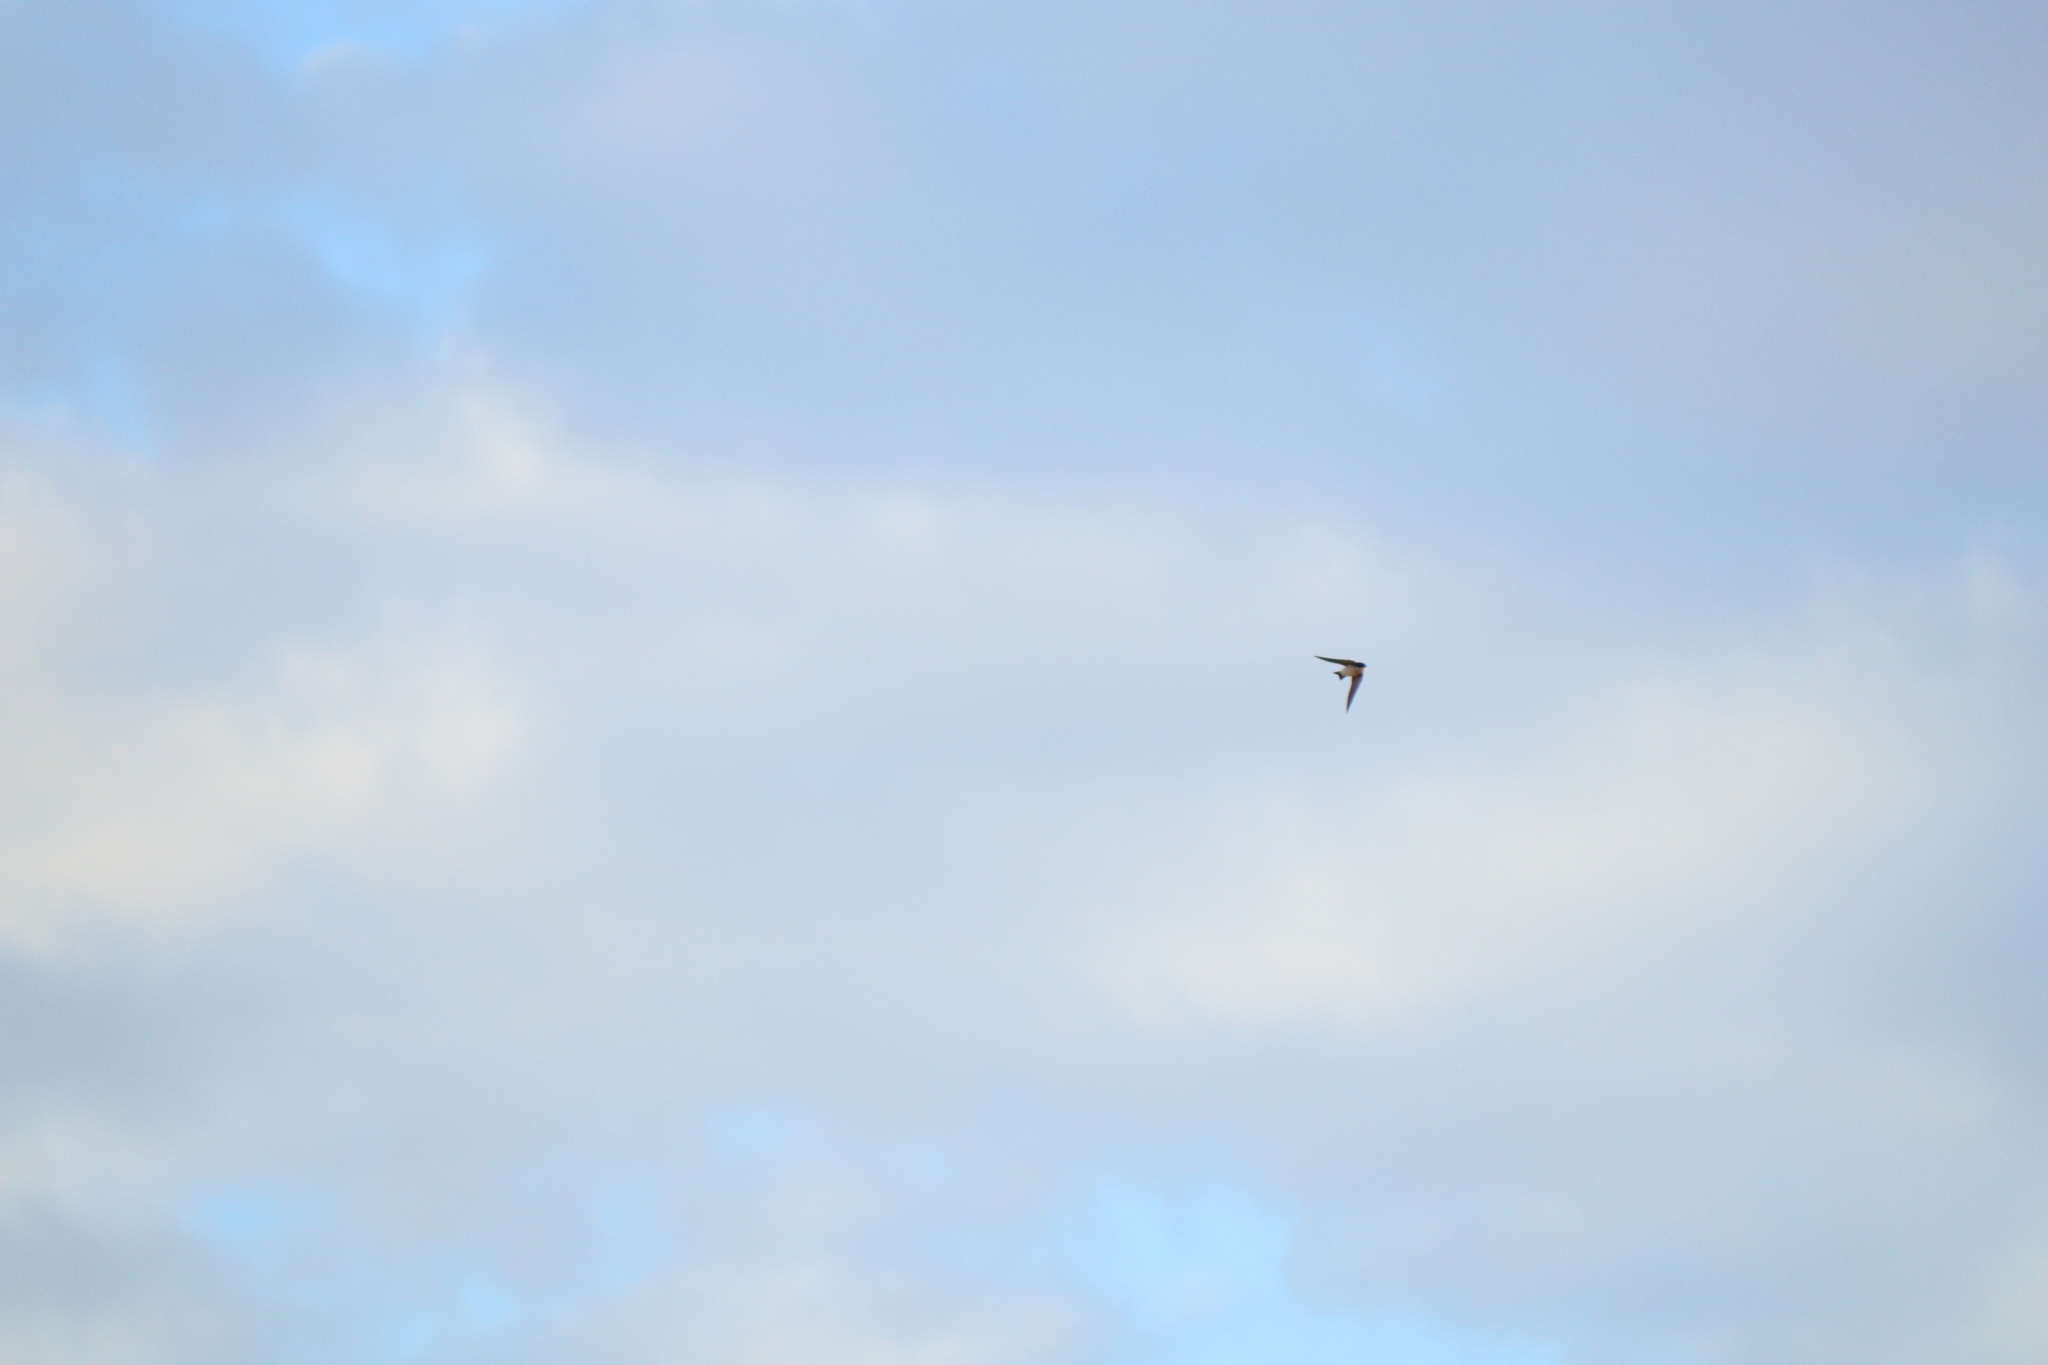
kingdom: Animalia
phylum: Chordata
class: Aves
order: Passeriformes
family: Hirundinidae
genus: Tachycineta
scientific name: Tachycineta leucopyga
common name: Chilean swallow
